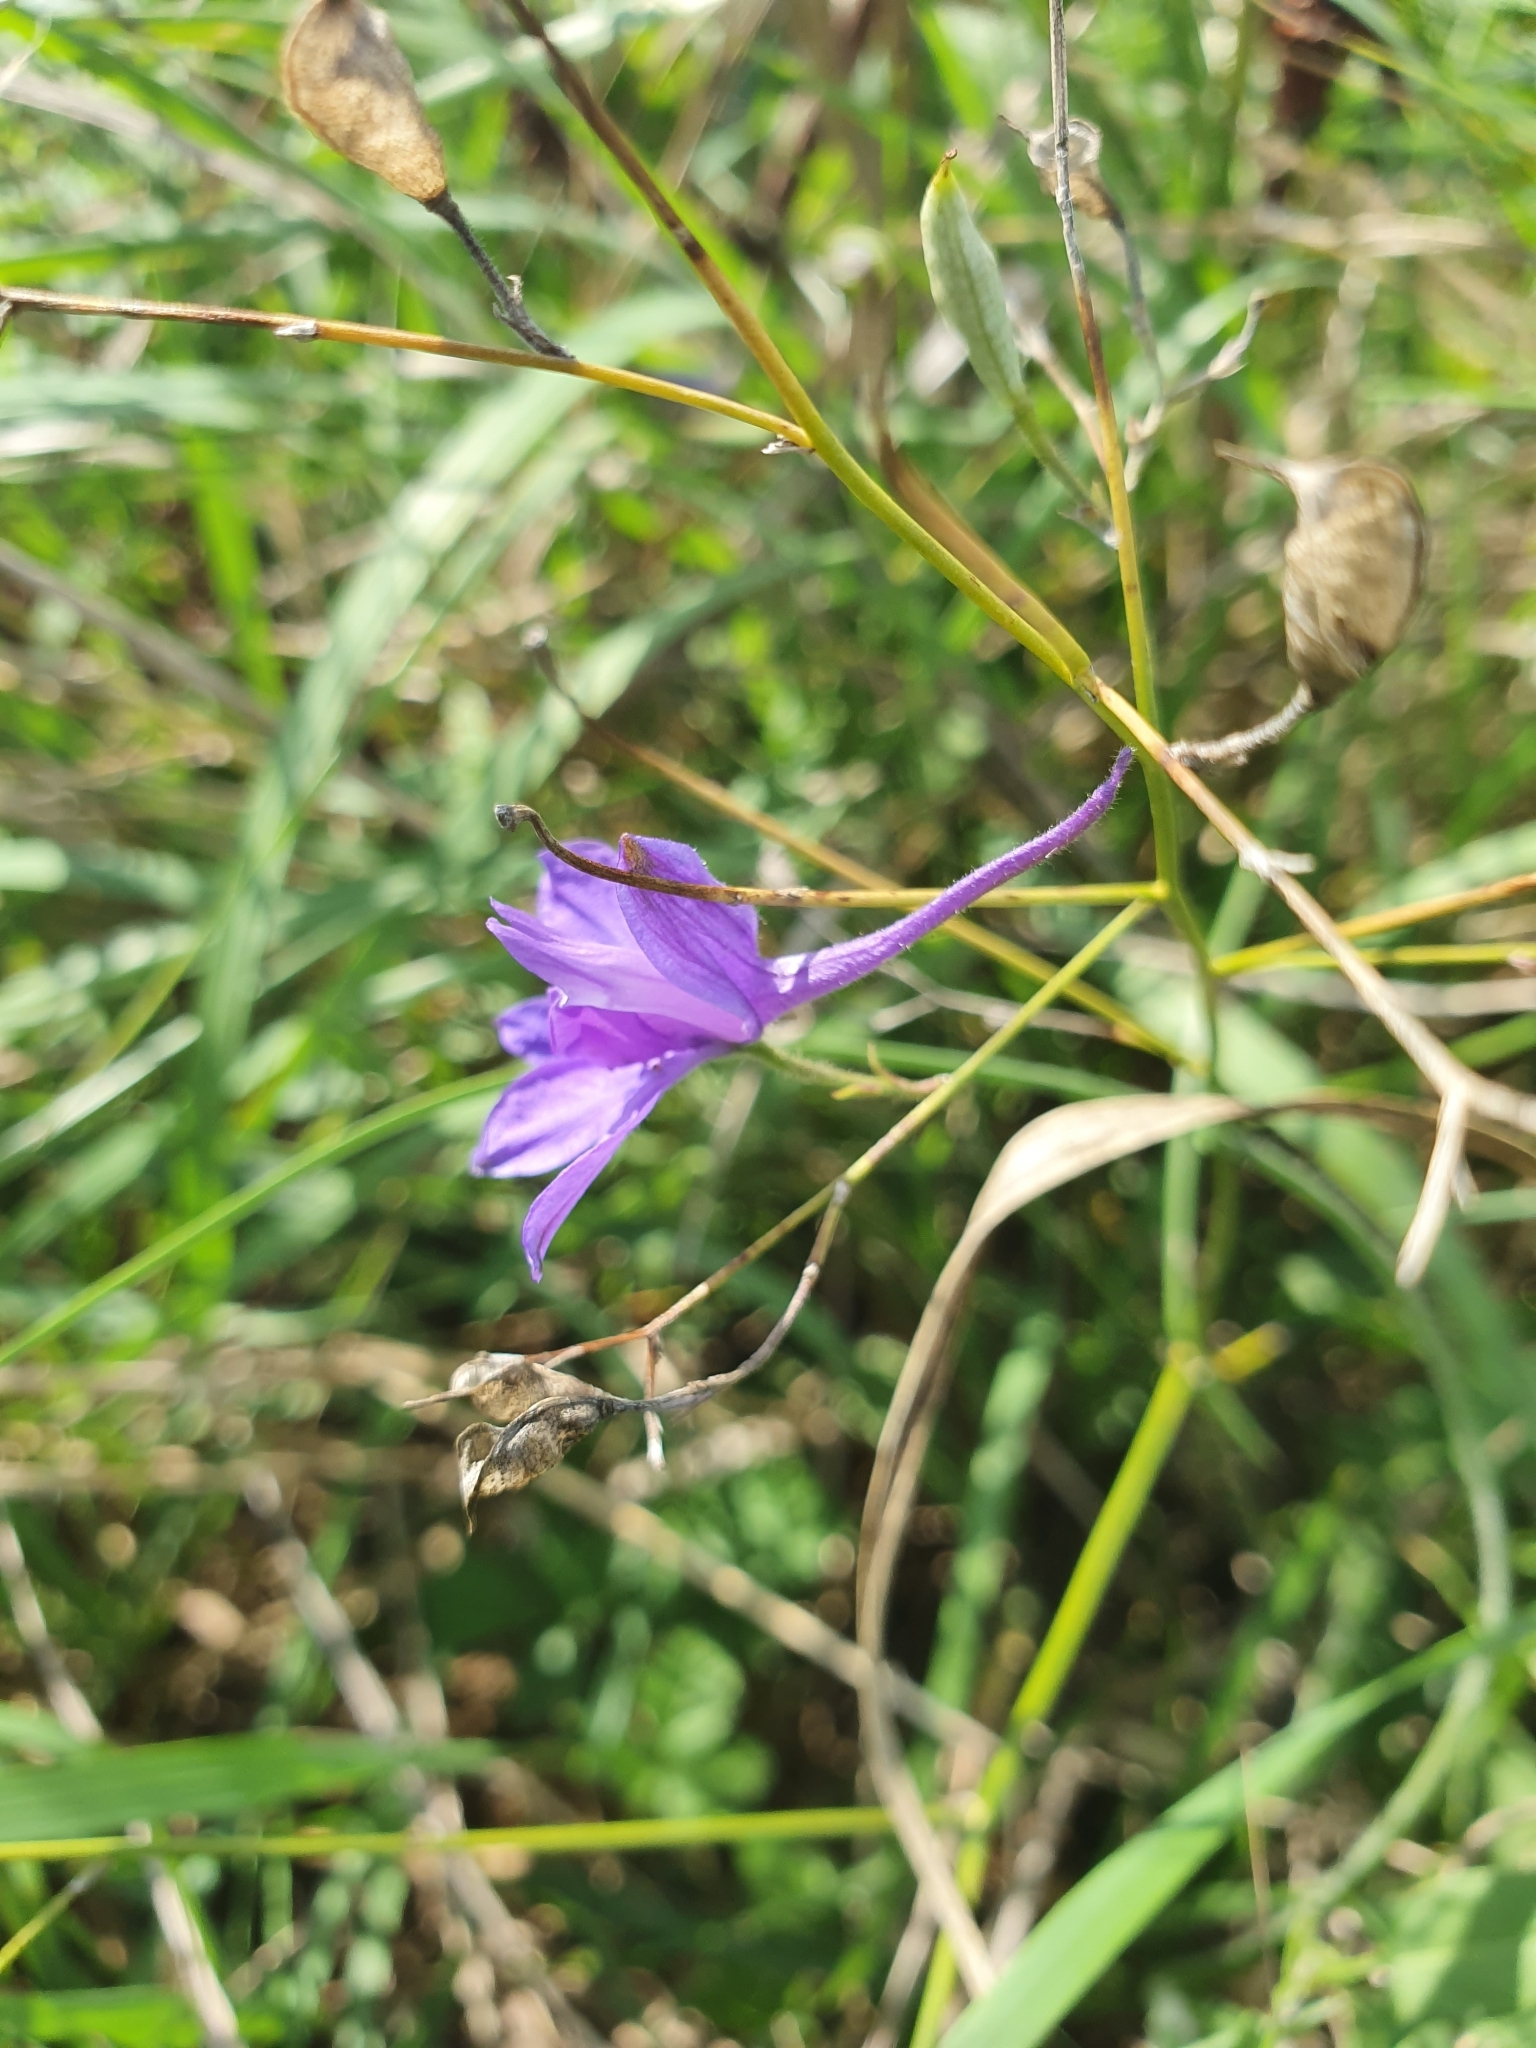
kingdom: Plantae
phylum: Tracheophyta
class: Magnoliopsida
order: Ranunculales
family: Ranunculaceae
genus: Delphinium
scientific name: Delphinium consolida
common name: Branching larkspur
